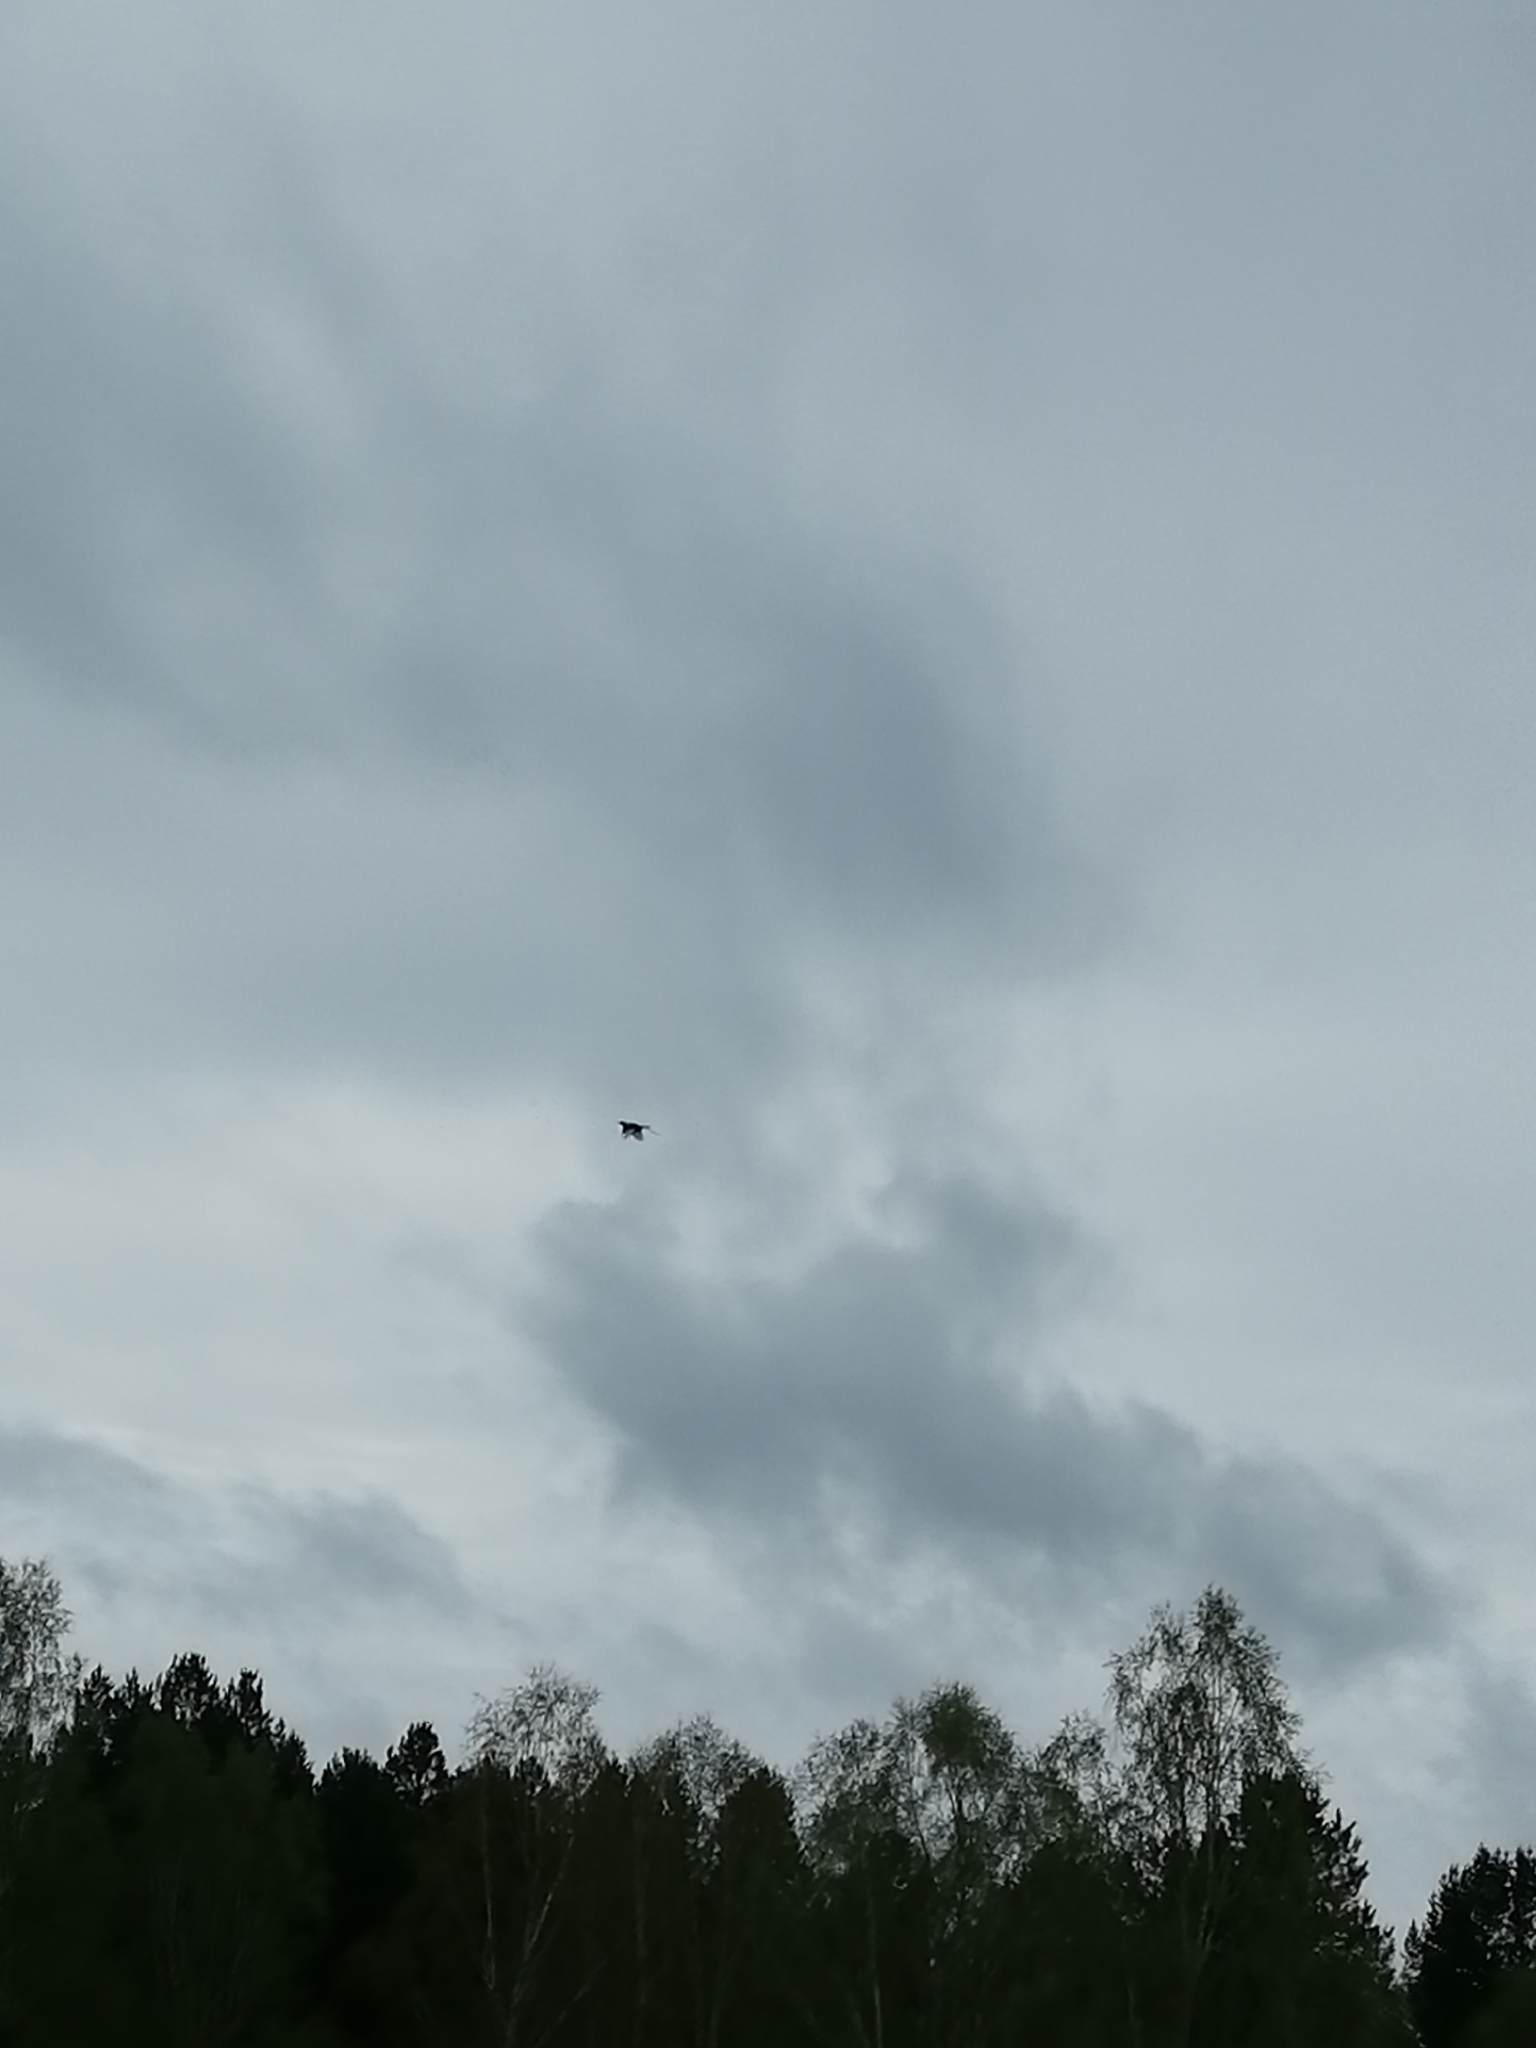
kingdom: Animalia
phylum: Chordata
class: Aves
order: Passeriformes
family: Corvidae
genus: Pica
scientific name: Pica pica
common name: Eurasian magpie
